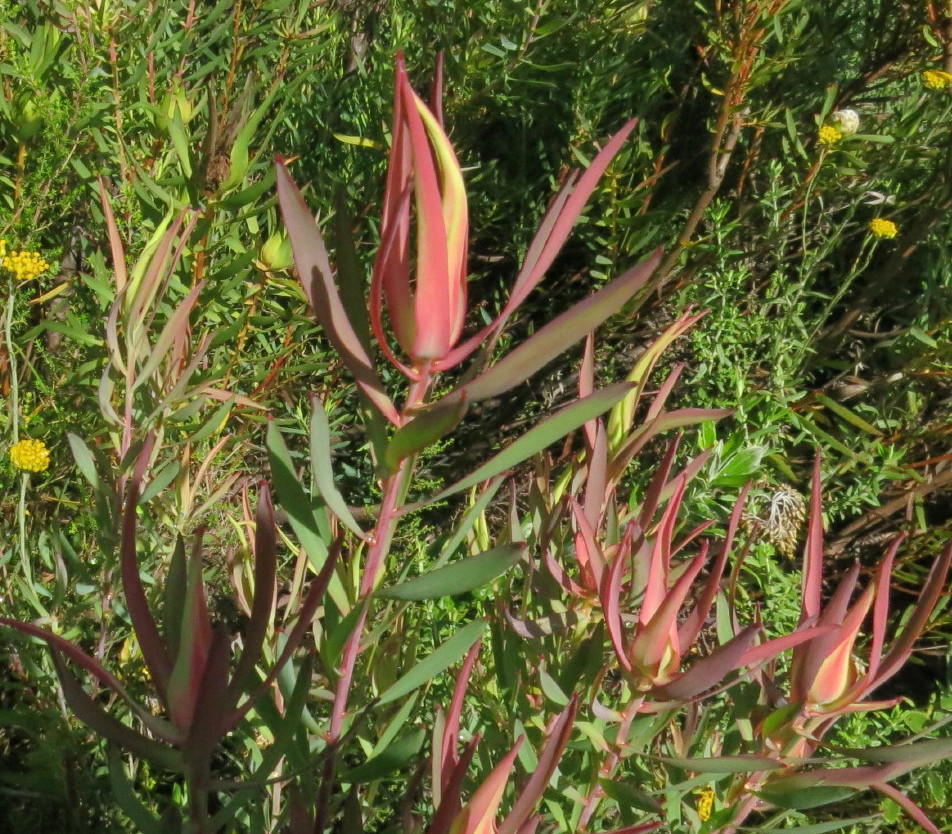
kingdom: Plantae
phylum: Tracheophyta
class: Magnoliopsida
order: Proteales
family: Proteaceae
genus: Leucadendron
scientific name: Leucadendron salignum
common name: Common sunshine conebush
